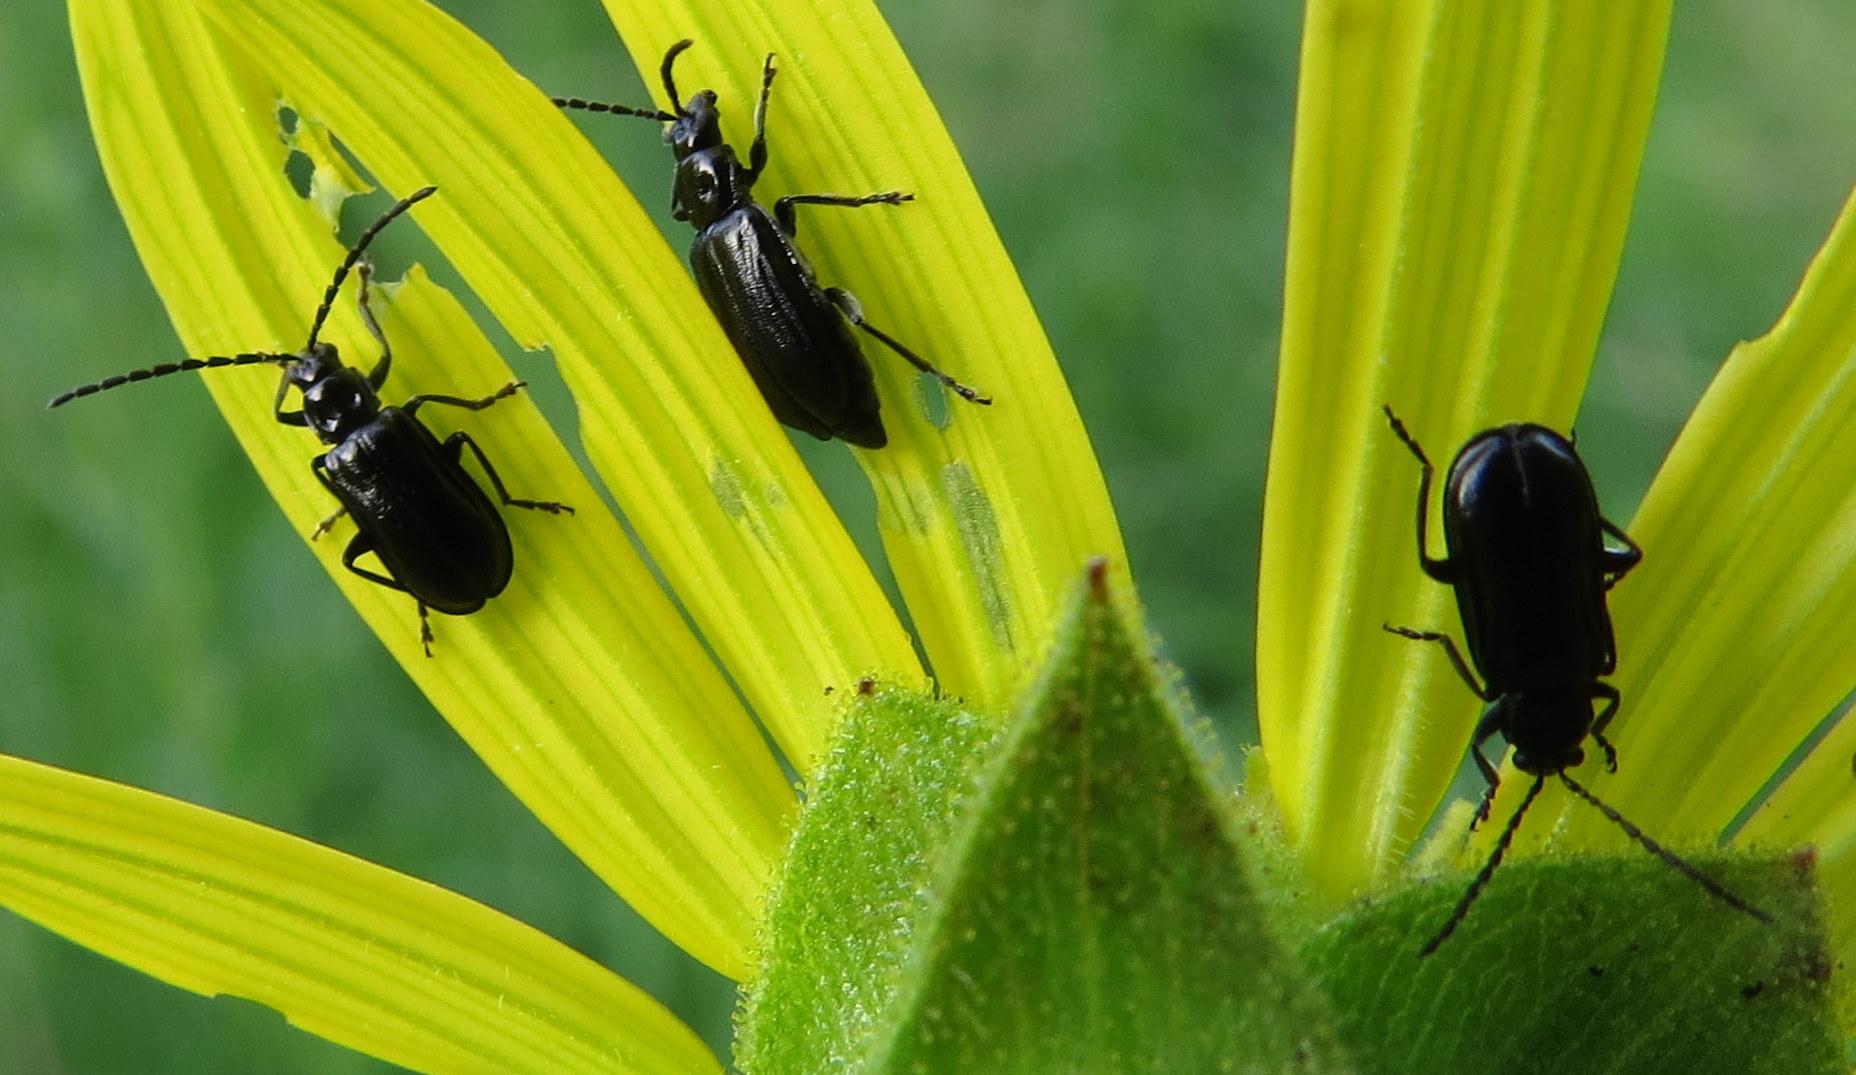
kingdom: Animalia
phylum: Arthropoda
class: Insecta
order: Coleoptera
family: Chrysomelidae
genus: Diabrotica
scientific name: Diabrotica cristata
